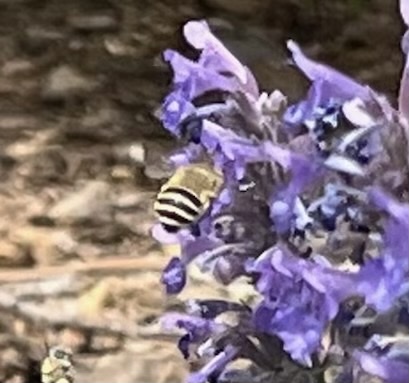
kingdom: Animalia
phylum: Arthropoda
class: Insecta
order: Hymenoptera
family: Apidae
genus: Anthophora
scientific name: Anthophora californica
